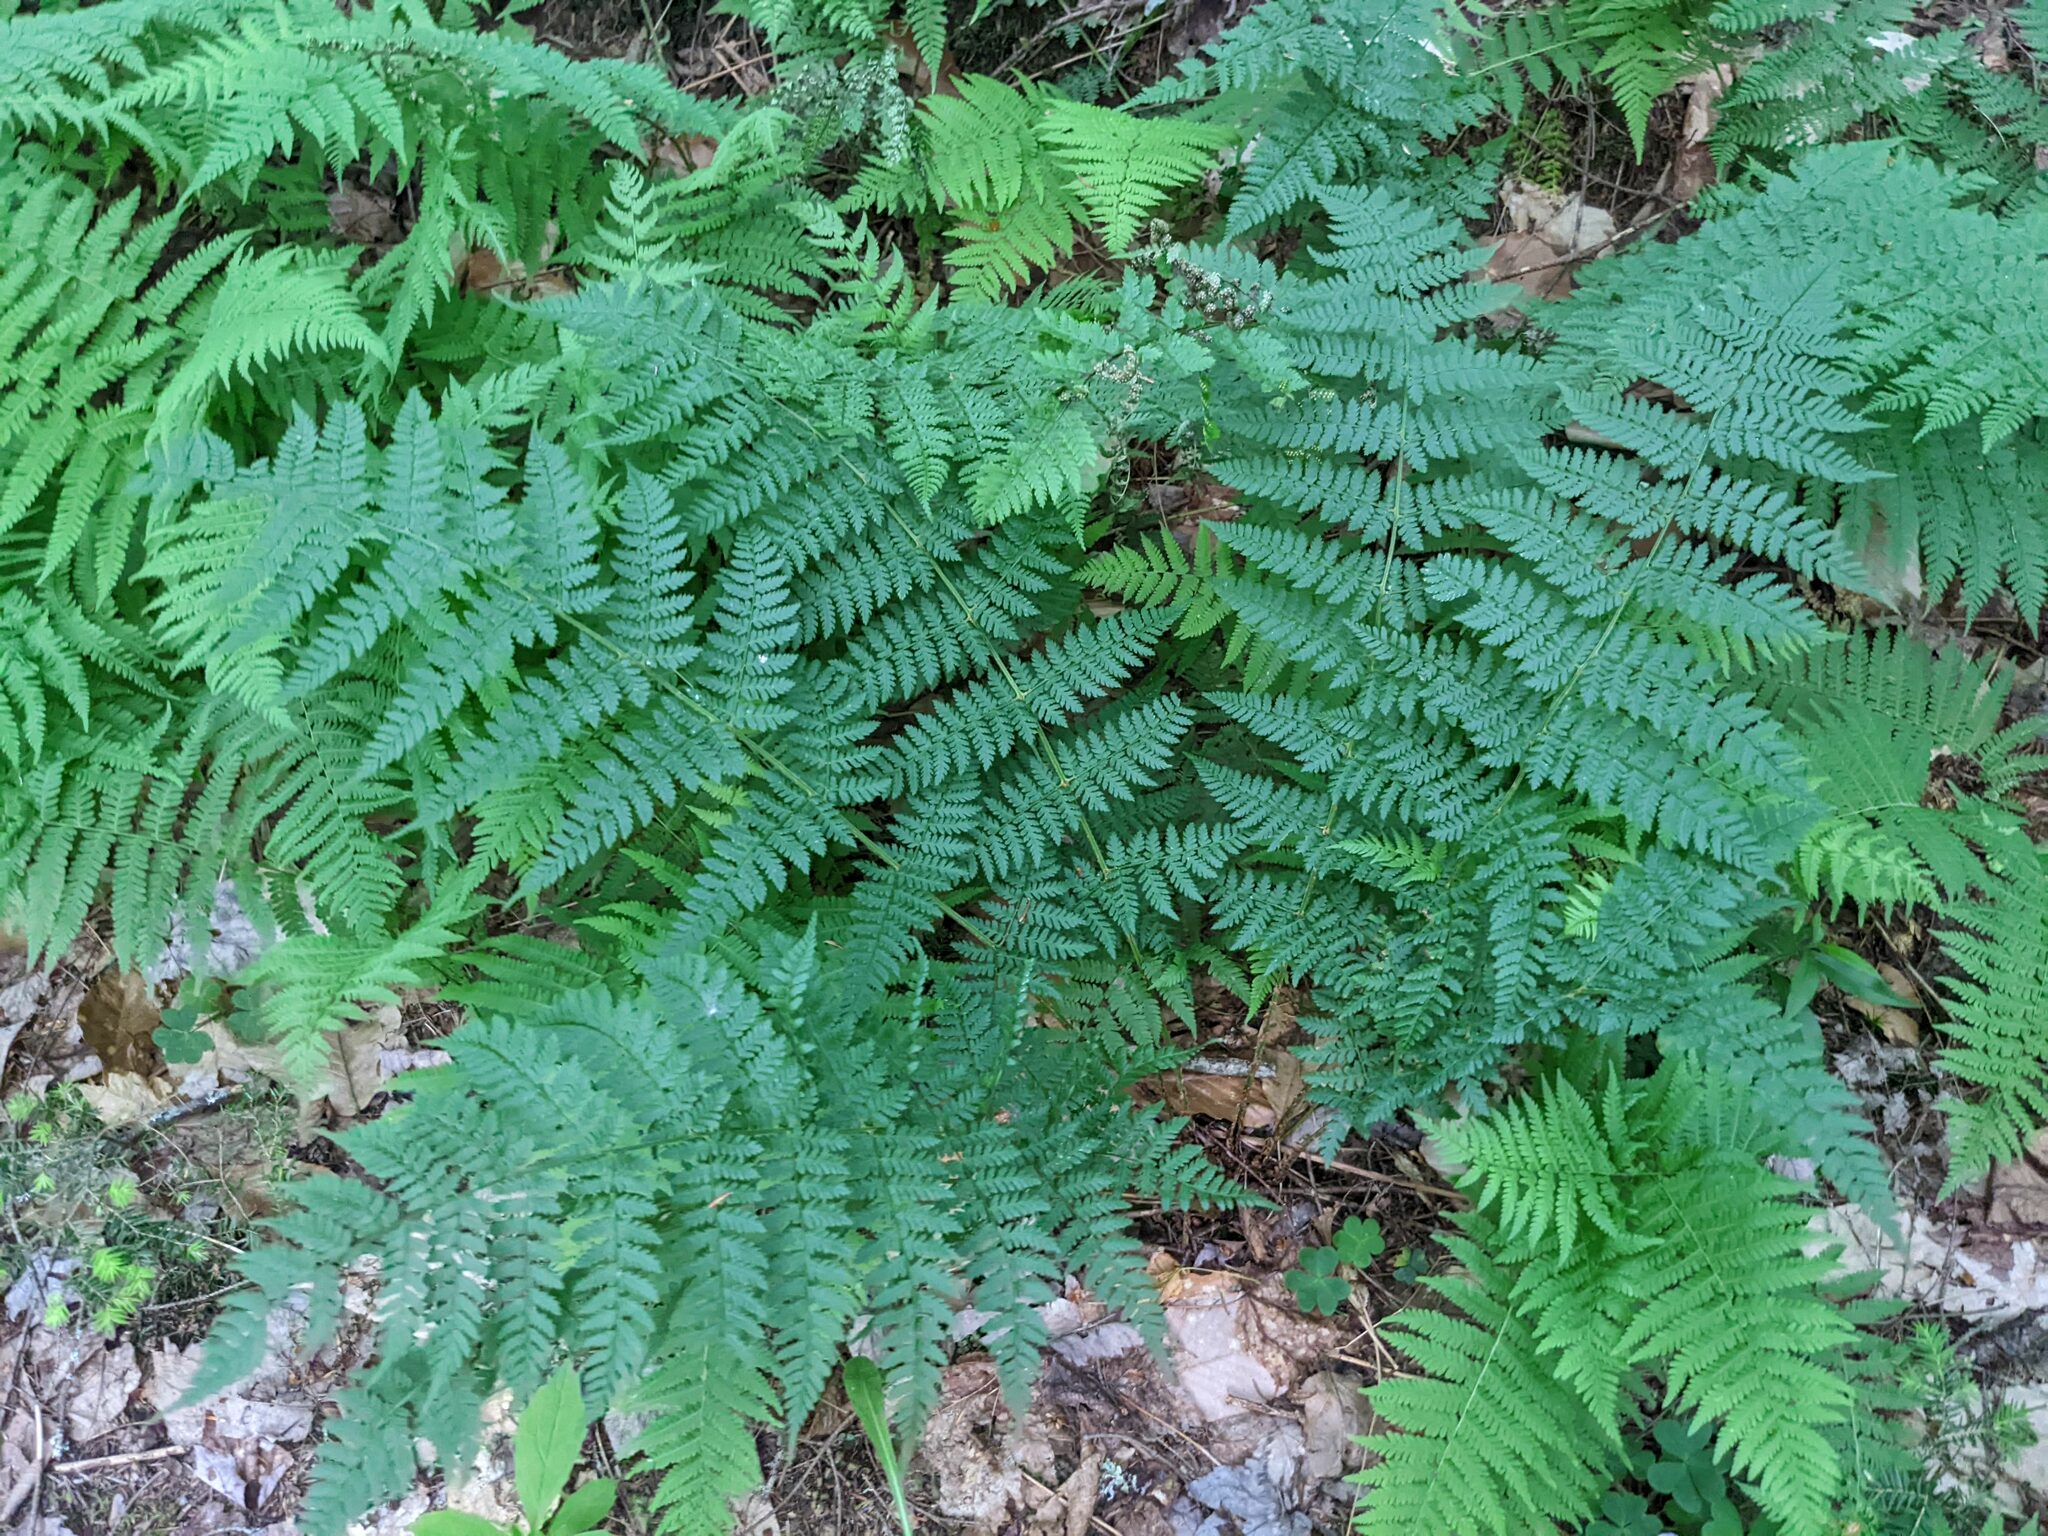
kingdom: Plantae
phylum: Tracheophyta
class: Polypodiopsida
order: Polypodiales
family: Dryopteridaceae
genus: Dryopteris
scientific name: Dryopteris intermedia
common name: Evergreen wood fern
